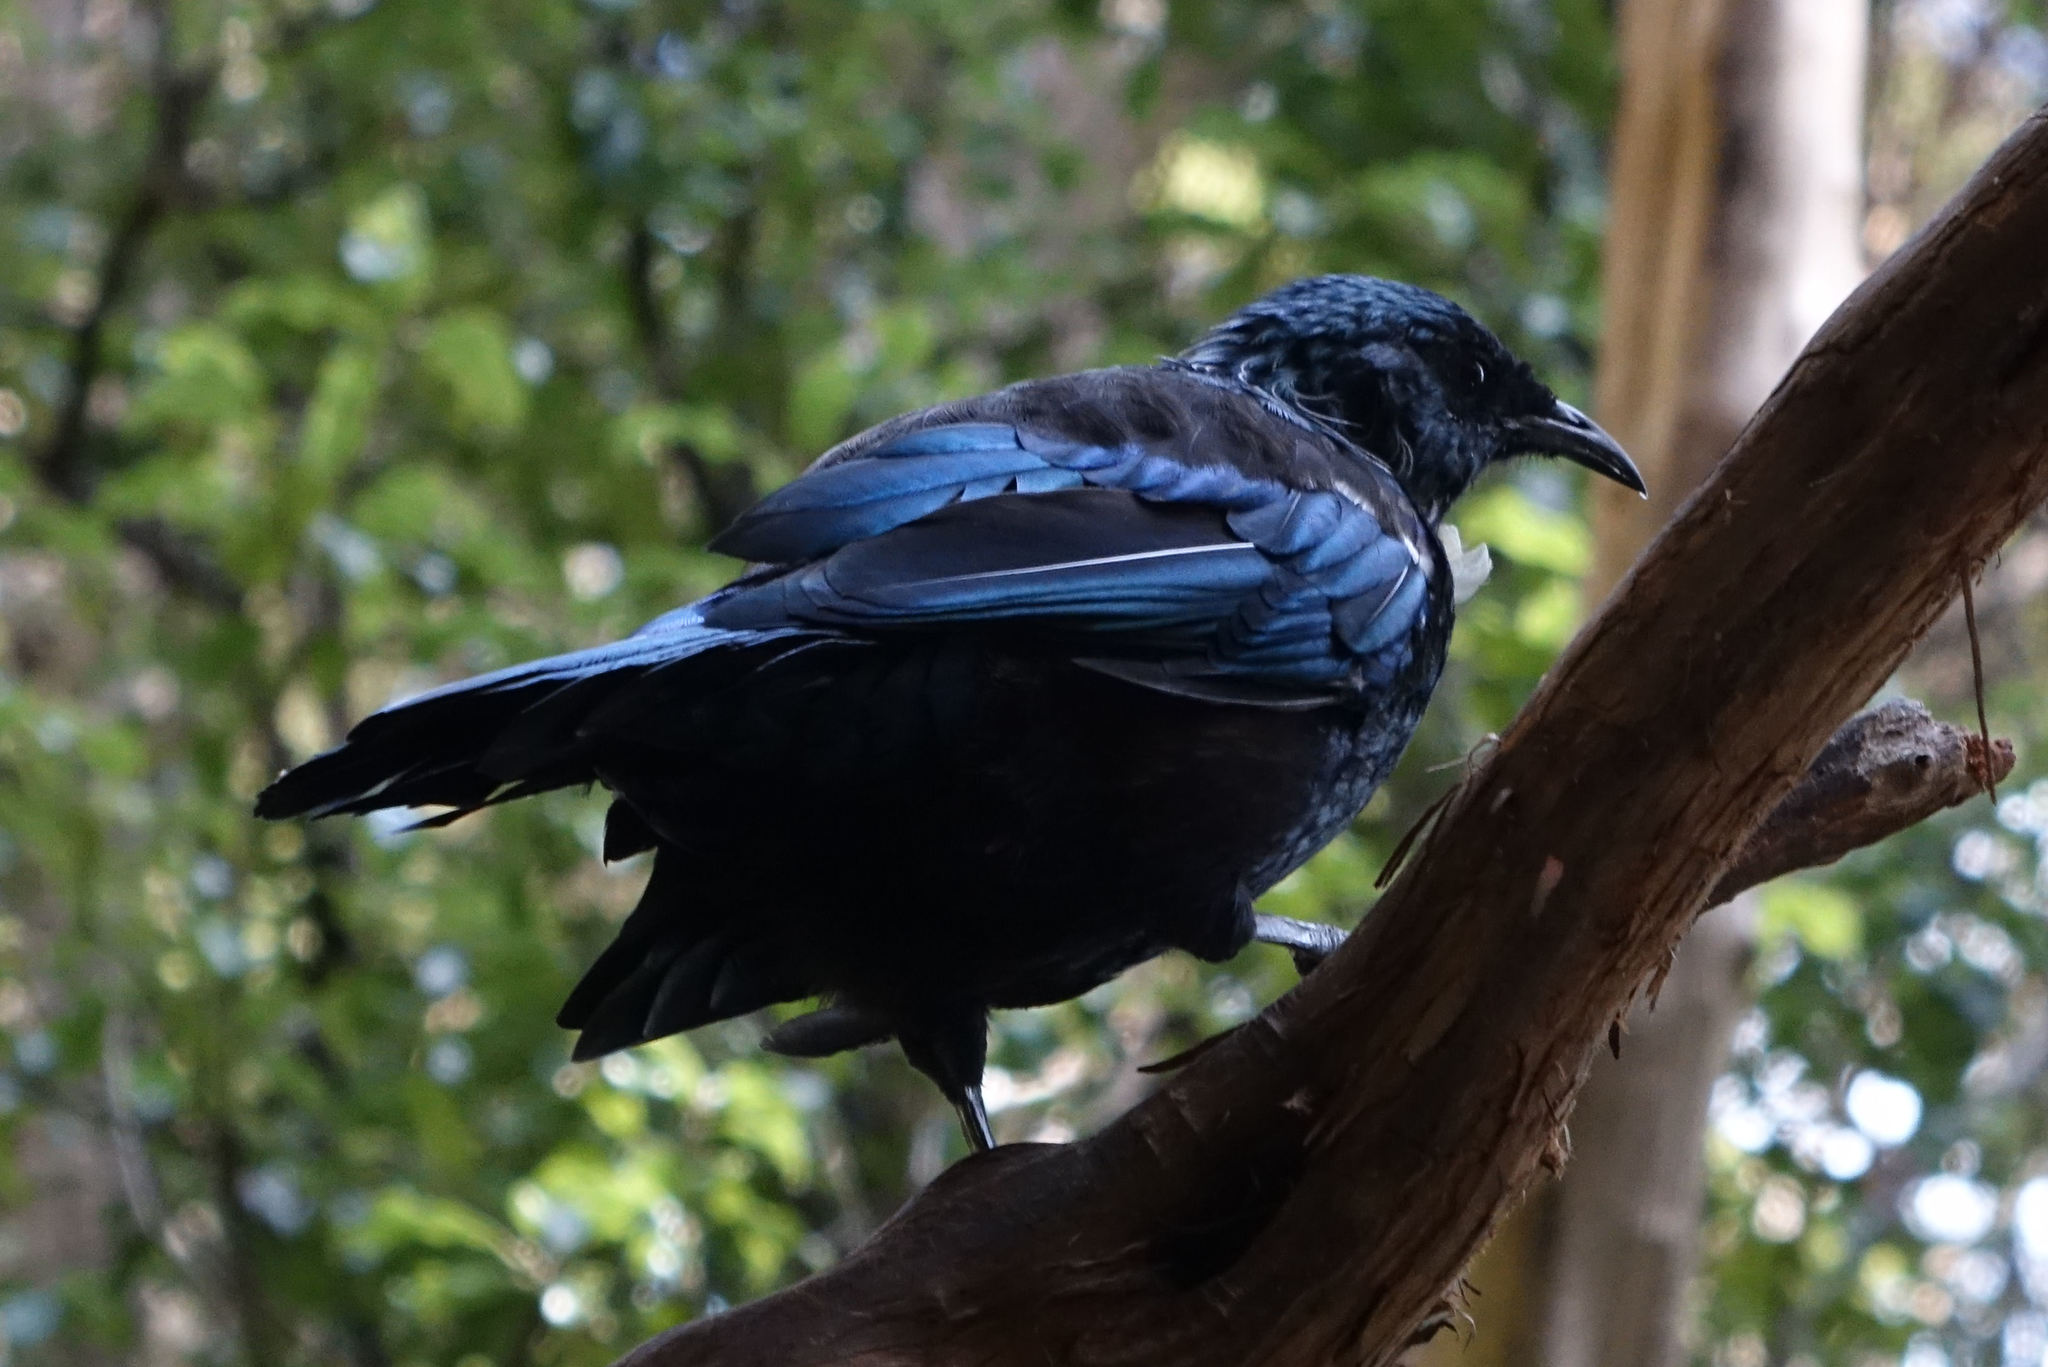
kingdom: Animalia
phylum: Chordata
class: Aves
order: Passeriformes
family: Meliphagidae
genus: Prosthemadera
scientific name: Prosthemadera novaeseelandiae
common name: Tui
